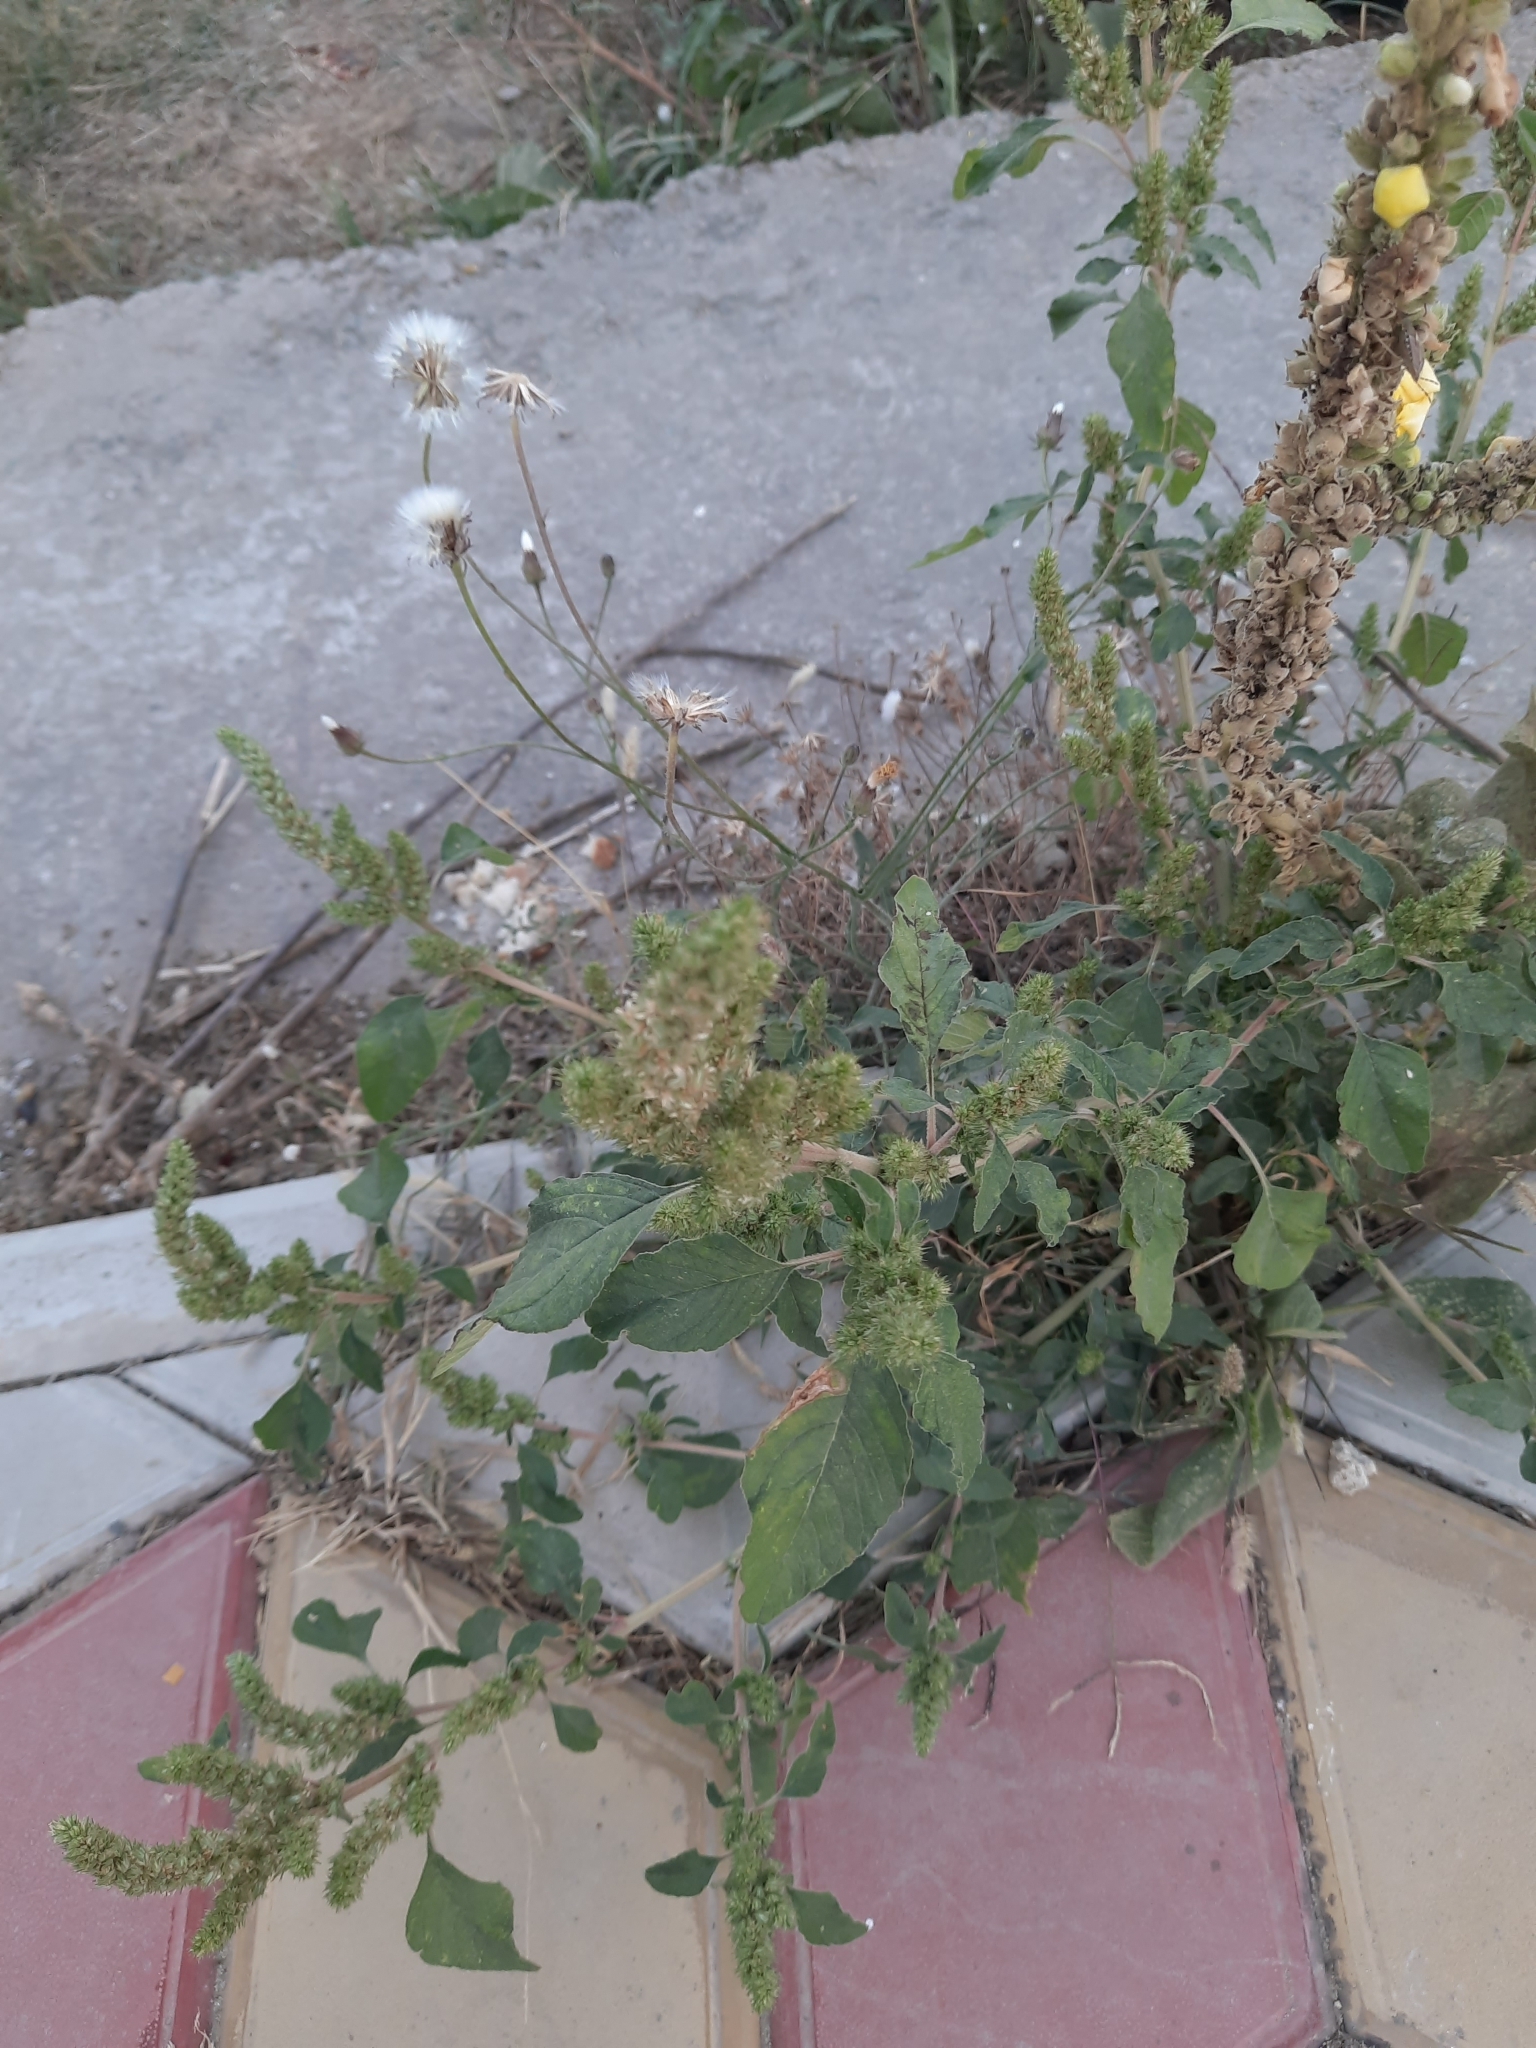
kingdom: Plantae
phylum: Tracheophyta
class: Magnoliopsida
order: Caryophyllales
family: Amaranthaceae
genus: Amaranthus
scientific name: Amaranthus retroflexus
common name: Redroot amaranth
